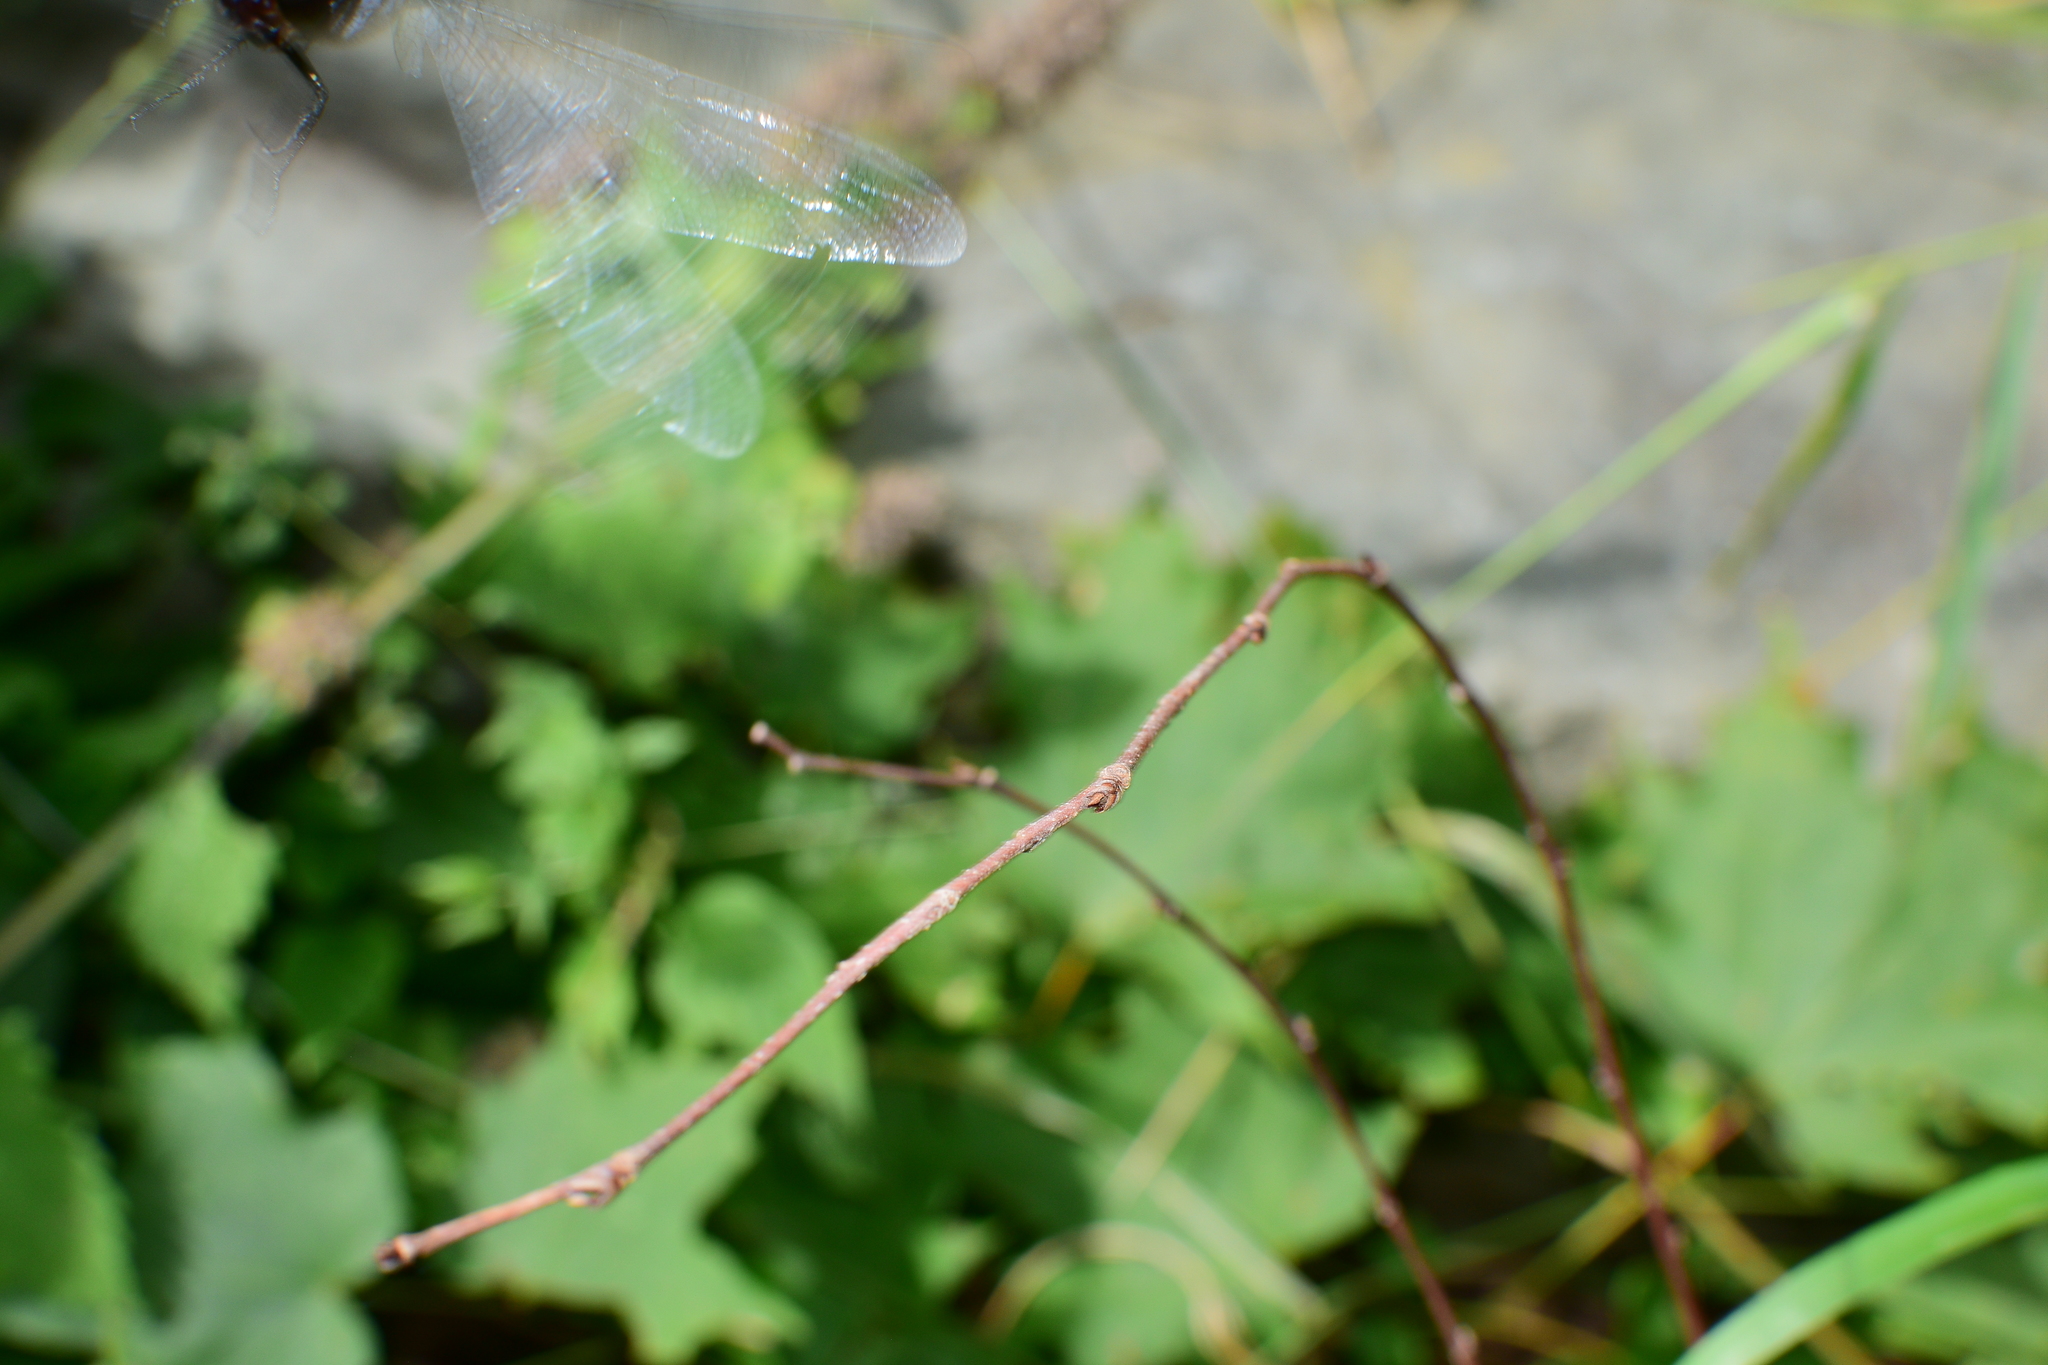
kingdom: Animalia
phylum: Arthropoda
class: Insecta
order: Odonata
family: Libellulidae
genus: Libellula
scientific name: Libellula incesta
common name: Slaty skimmer
